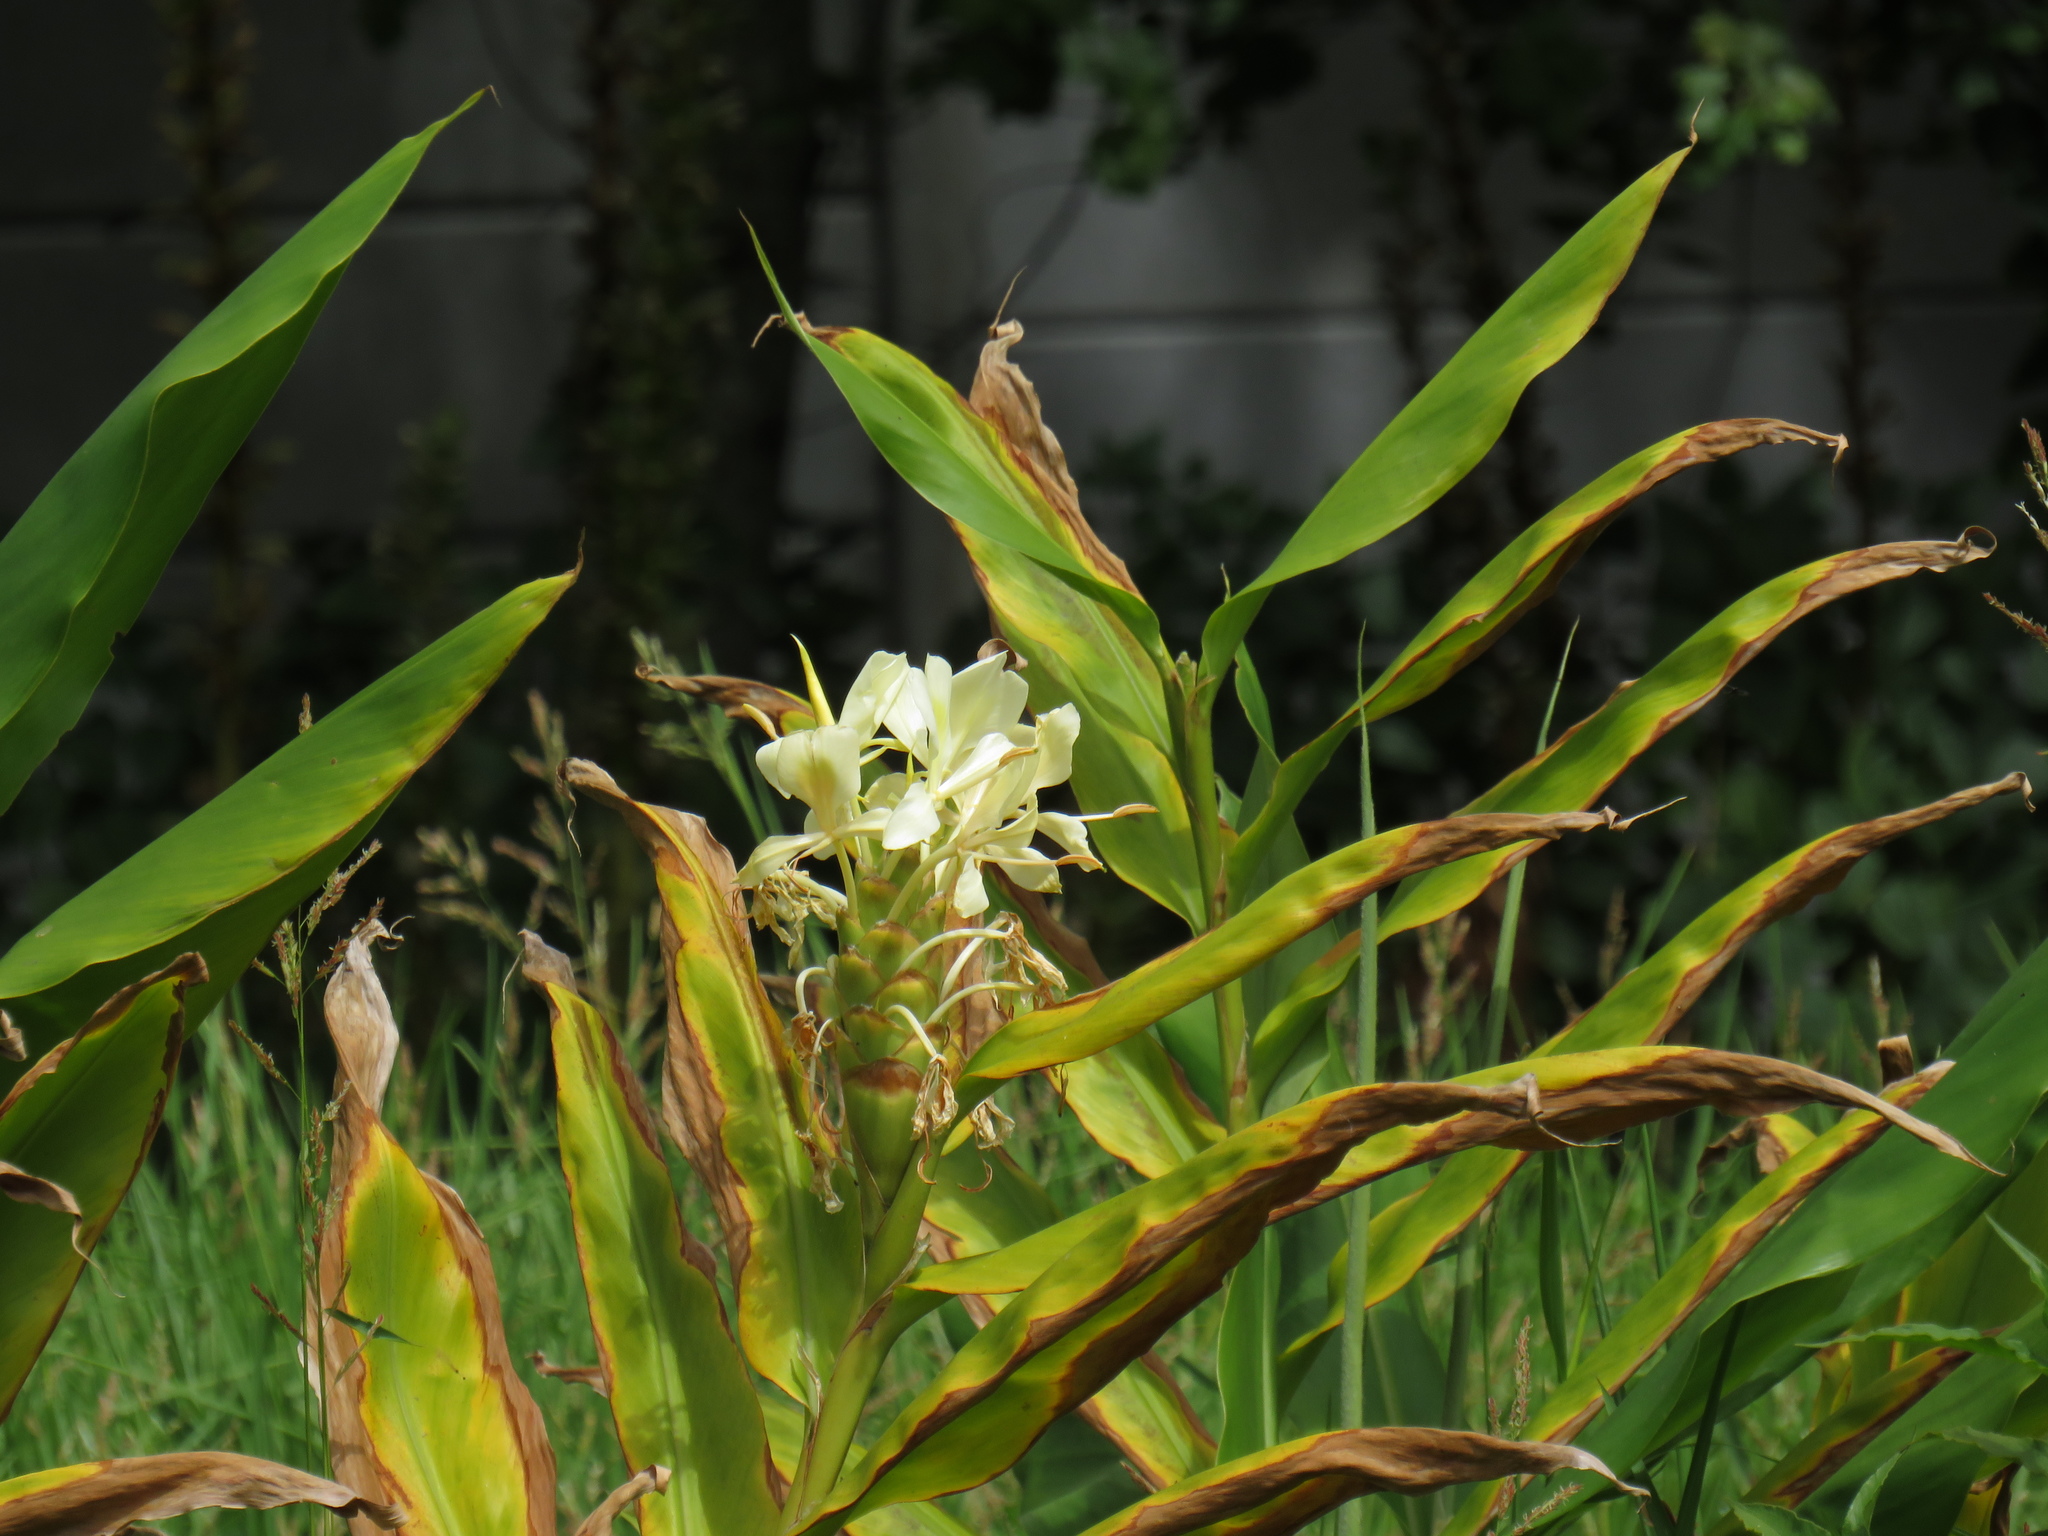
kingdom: Plantae
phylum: Tracheophyta
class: Liliopsida
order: Zingiberales
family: Zingiberaceae
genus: Hedychium
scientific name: Hedychium flavescens
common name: Yellow ginger
